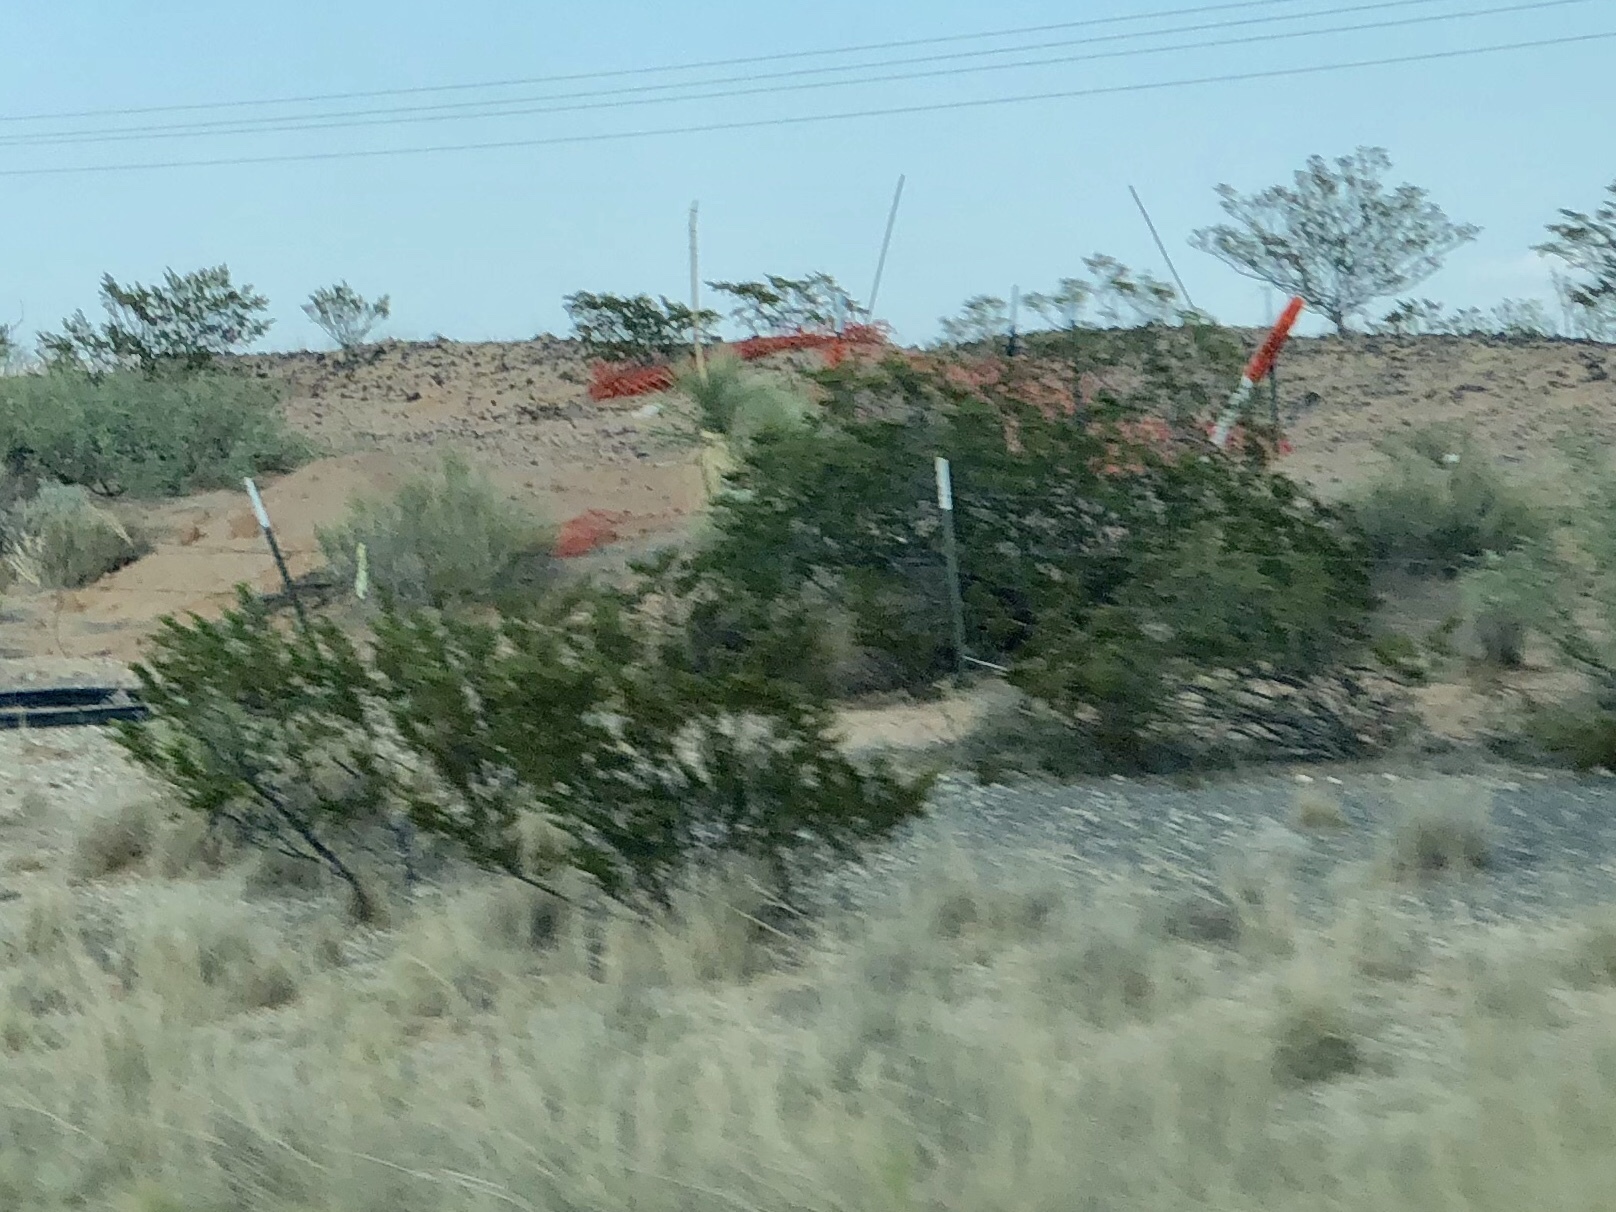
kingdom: Plantae
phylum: Tracheophyta
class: Magnoliopsida
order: Zygophyllales
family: Zygophyllaceae
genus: Larrea
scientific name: Larrea tridentata
